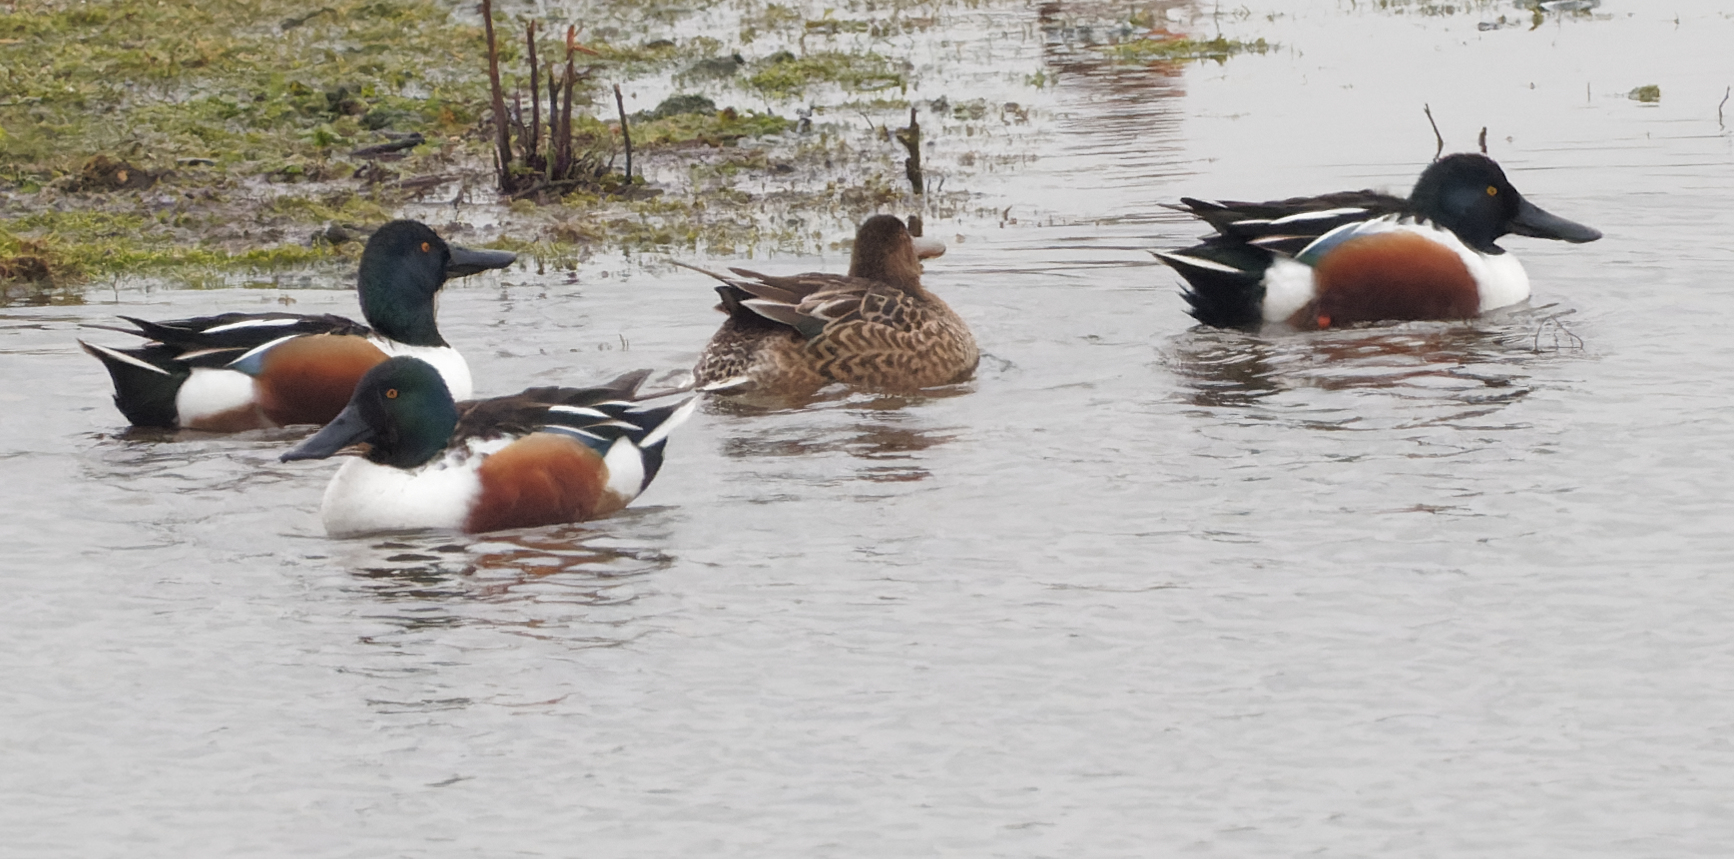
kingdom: Animalia
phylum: Chordata
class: Aves
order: Anseriformes
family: Anatidae
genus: Spatula
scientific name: Spatula clypeata
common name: Northern shoveler
